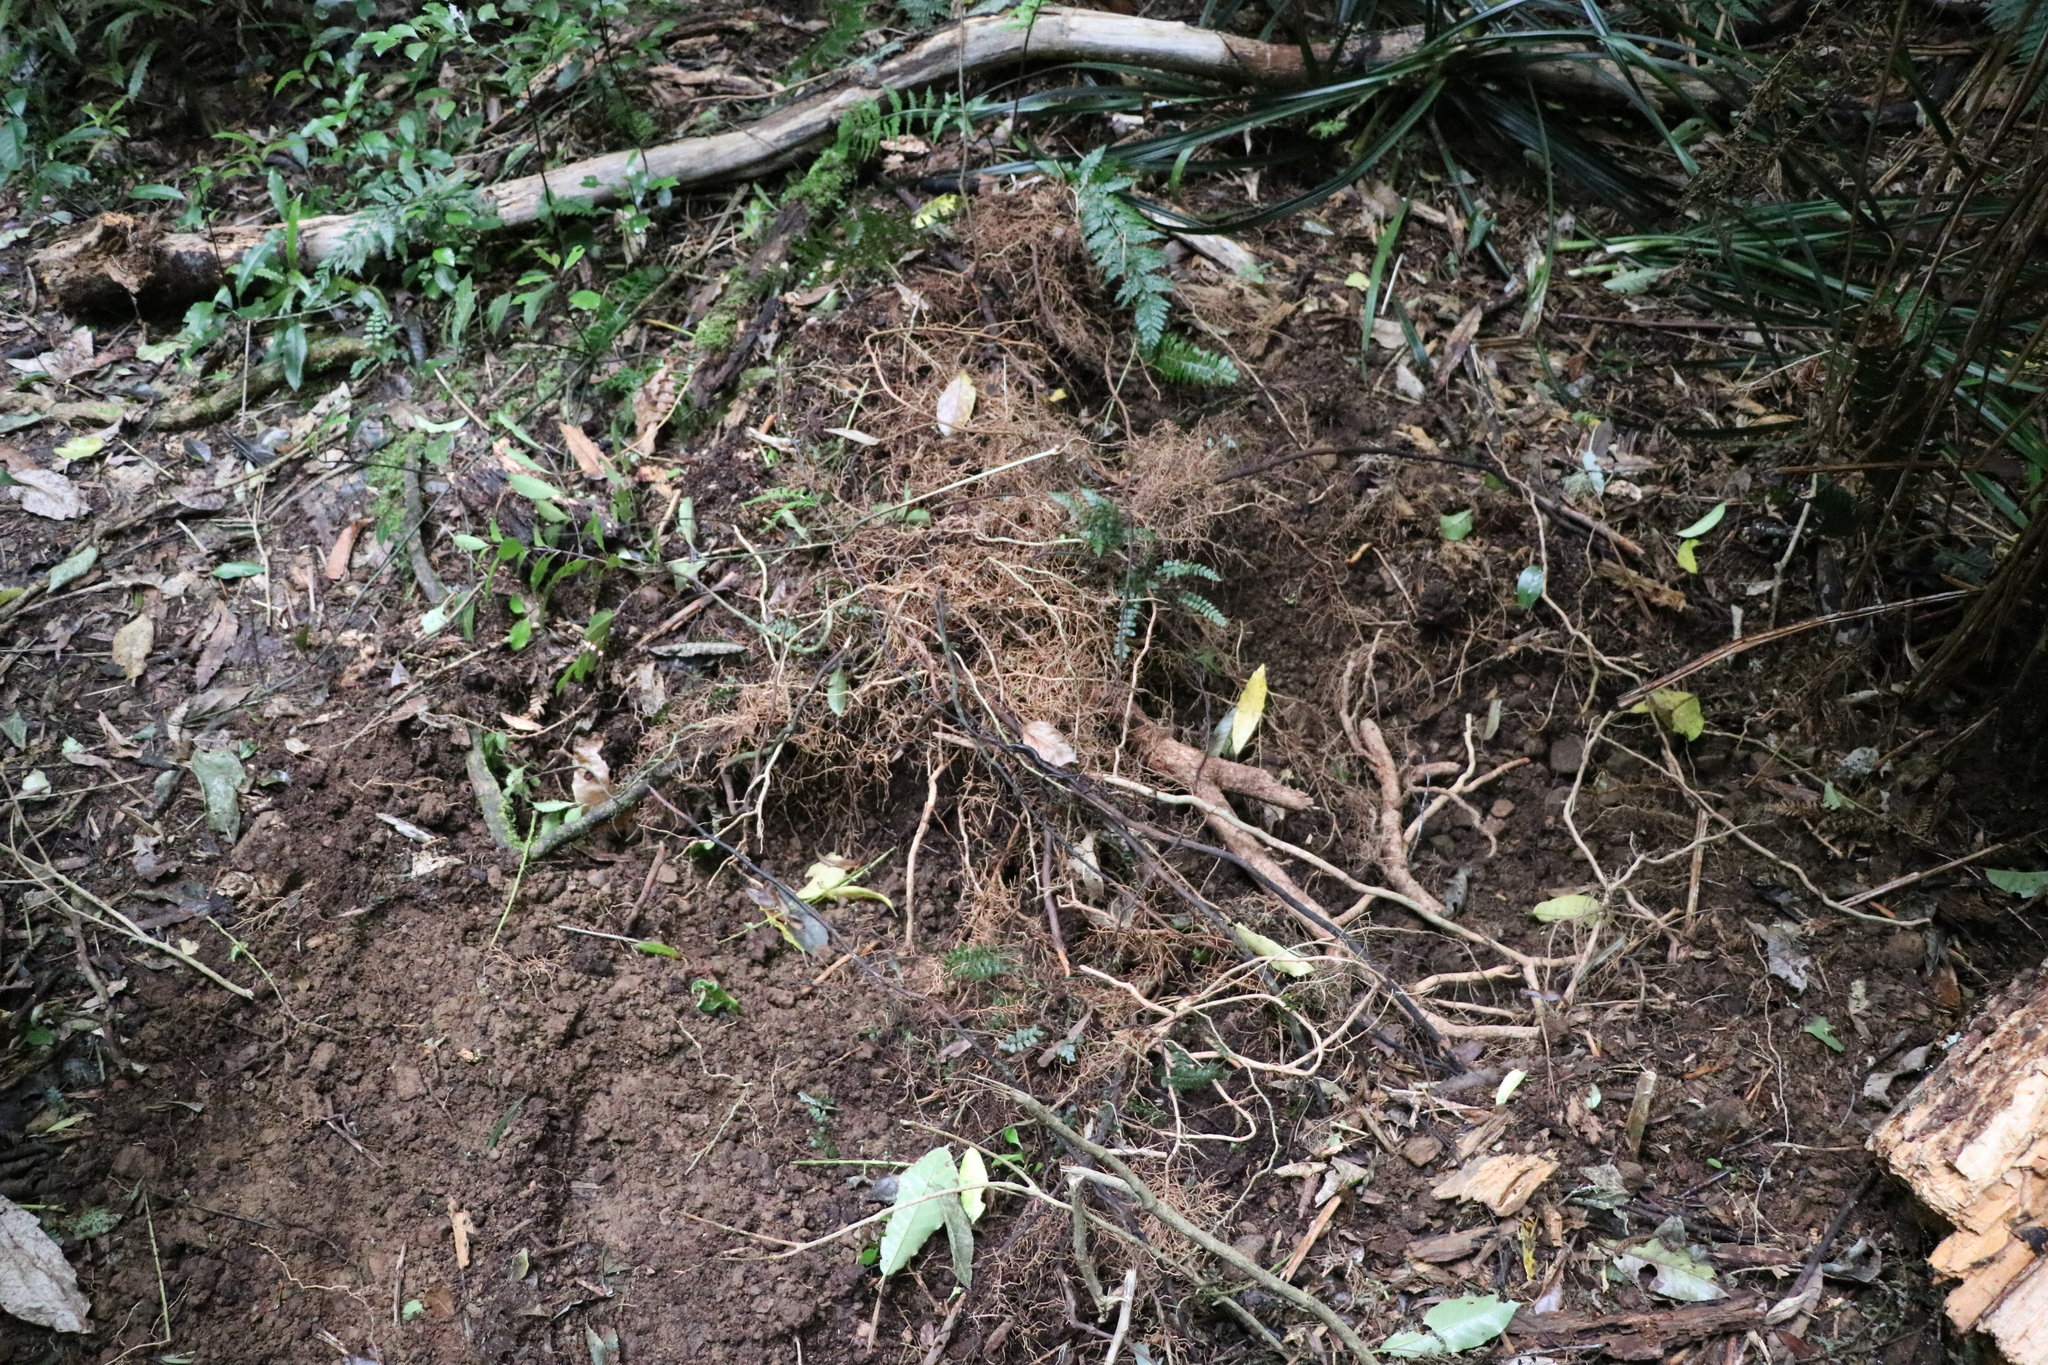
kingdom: Animalia
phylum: Chordata
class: Mammalia
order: Artiodactyla
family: Suidae
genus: Sus
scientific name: Sus scrofa
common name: Wild boar
